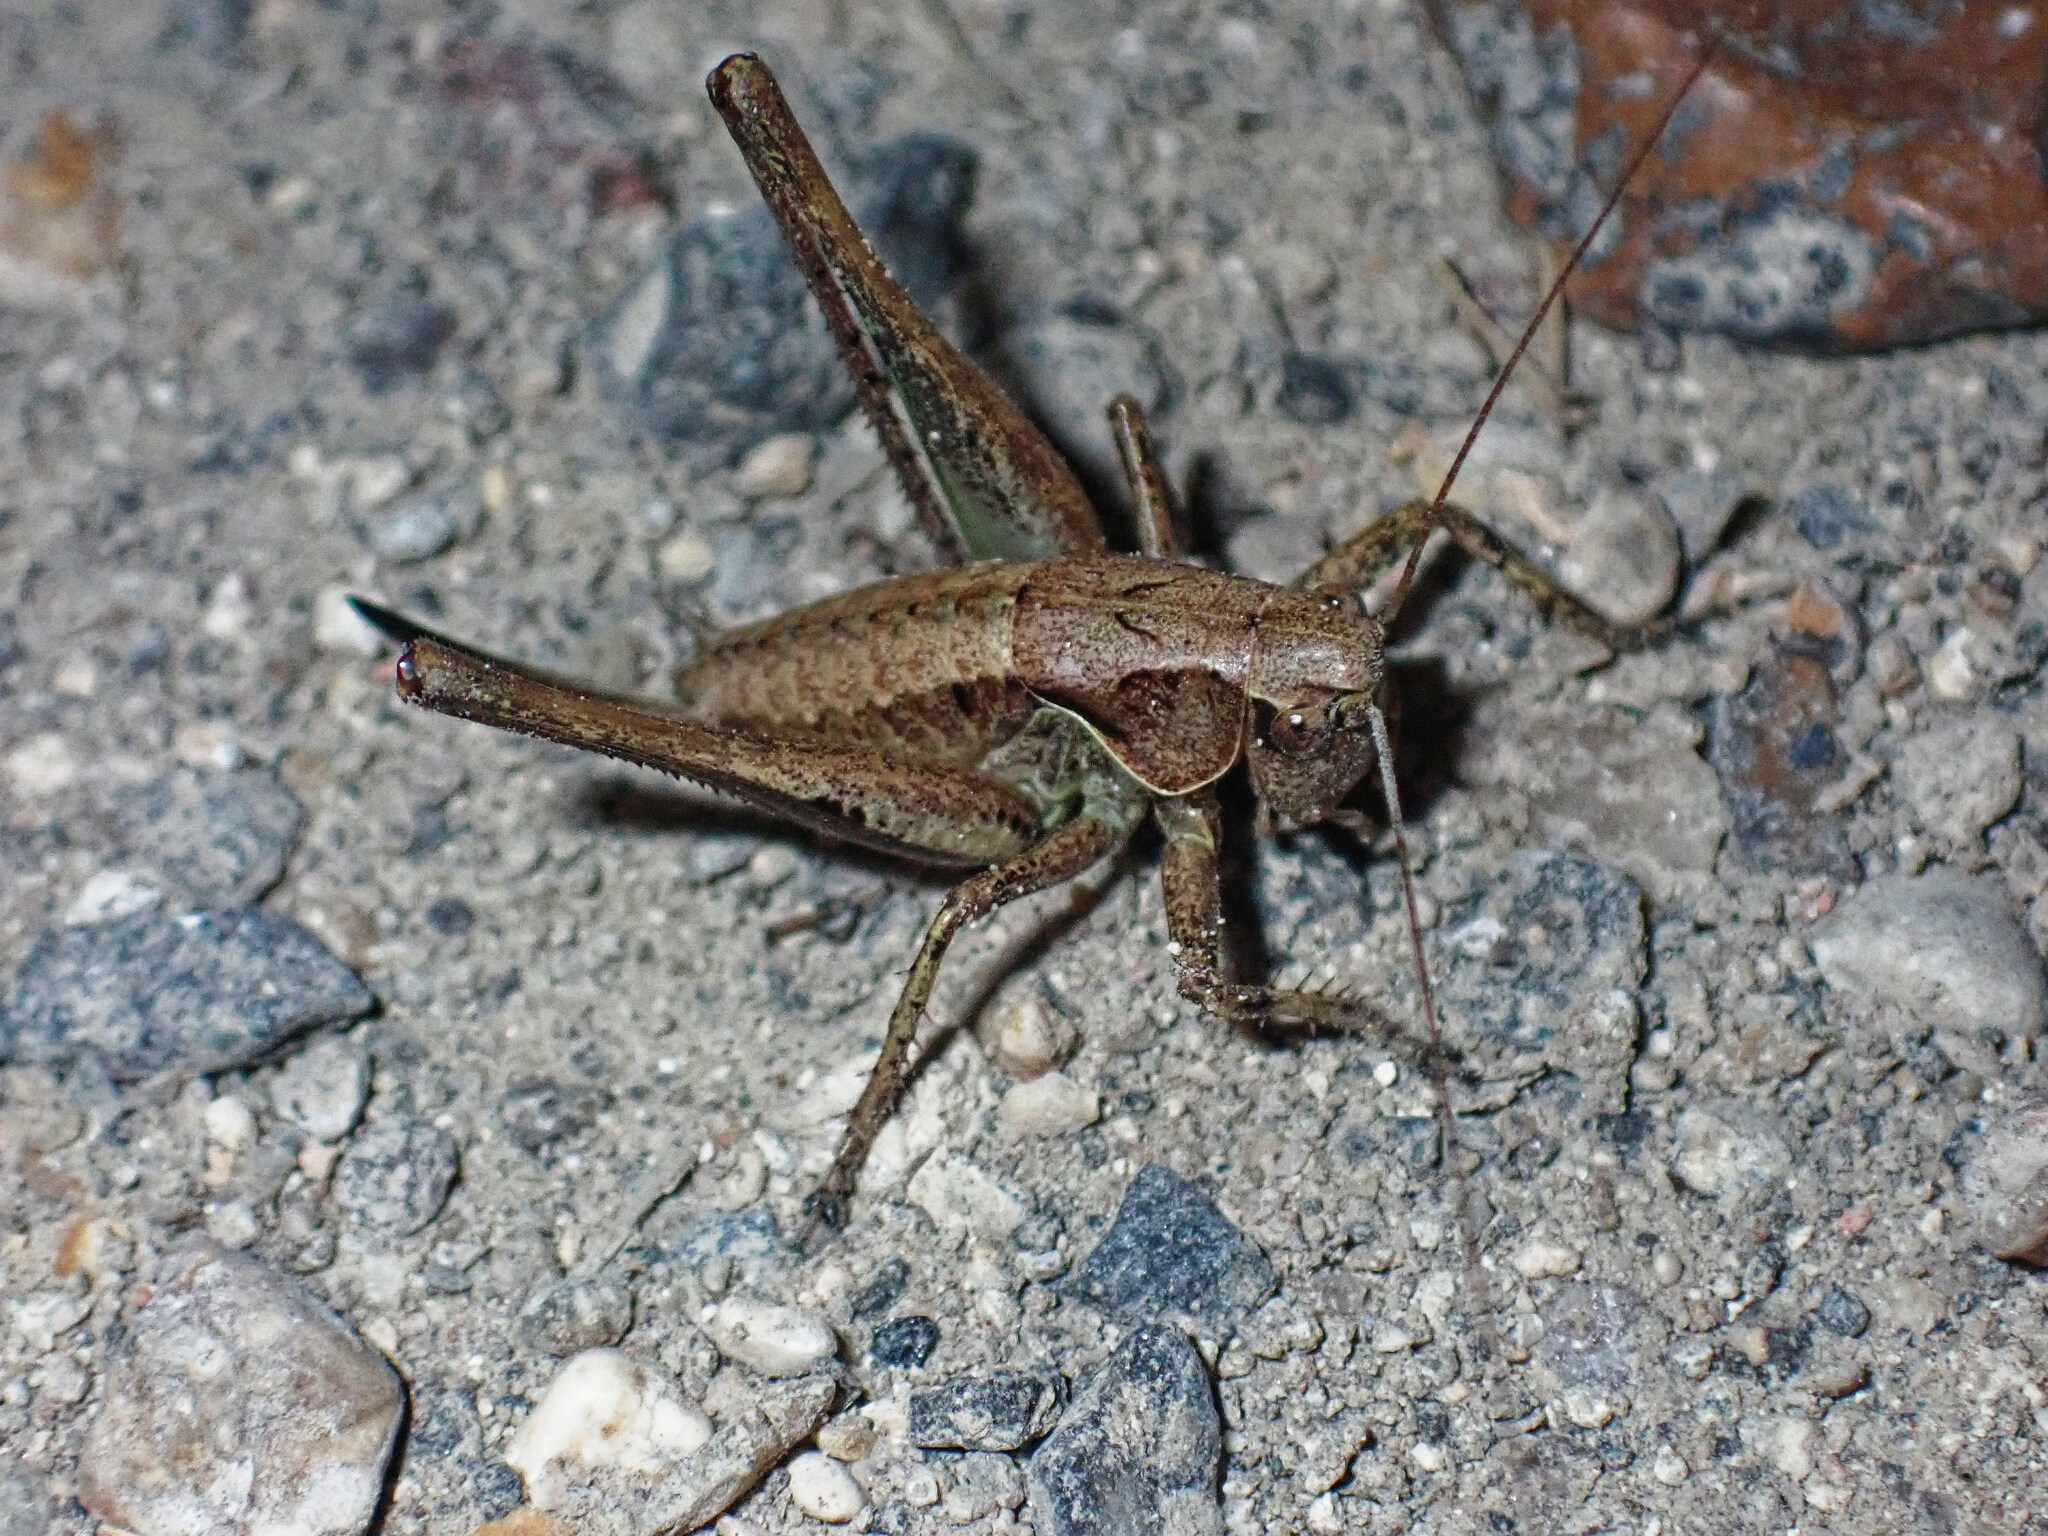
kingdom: Animalia
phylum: Arthropoda
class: Insecta
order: Orthoptera
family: Tettigoniidae
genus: Pholidoptera
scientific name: Pholidoptera griseoaptera
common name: Dark bush-cricket
